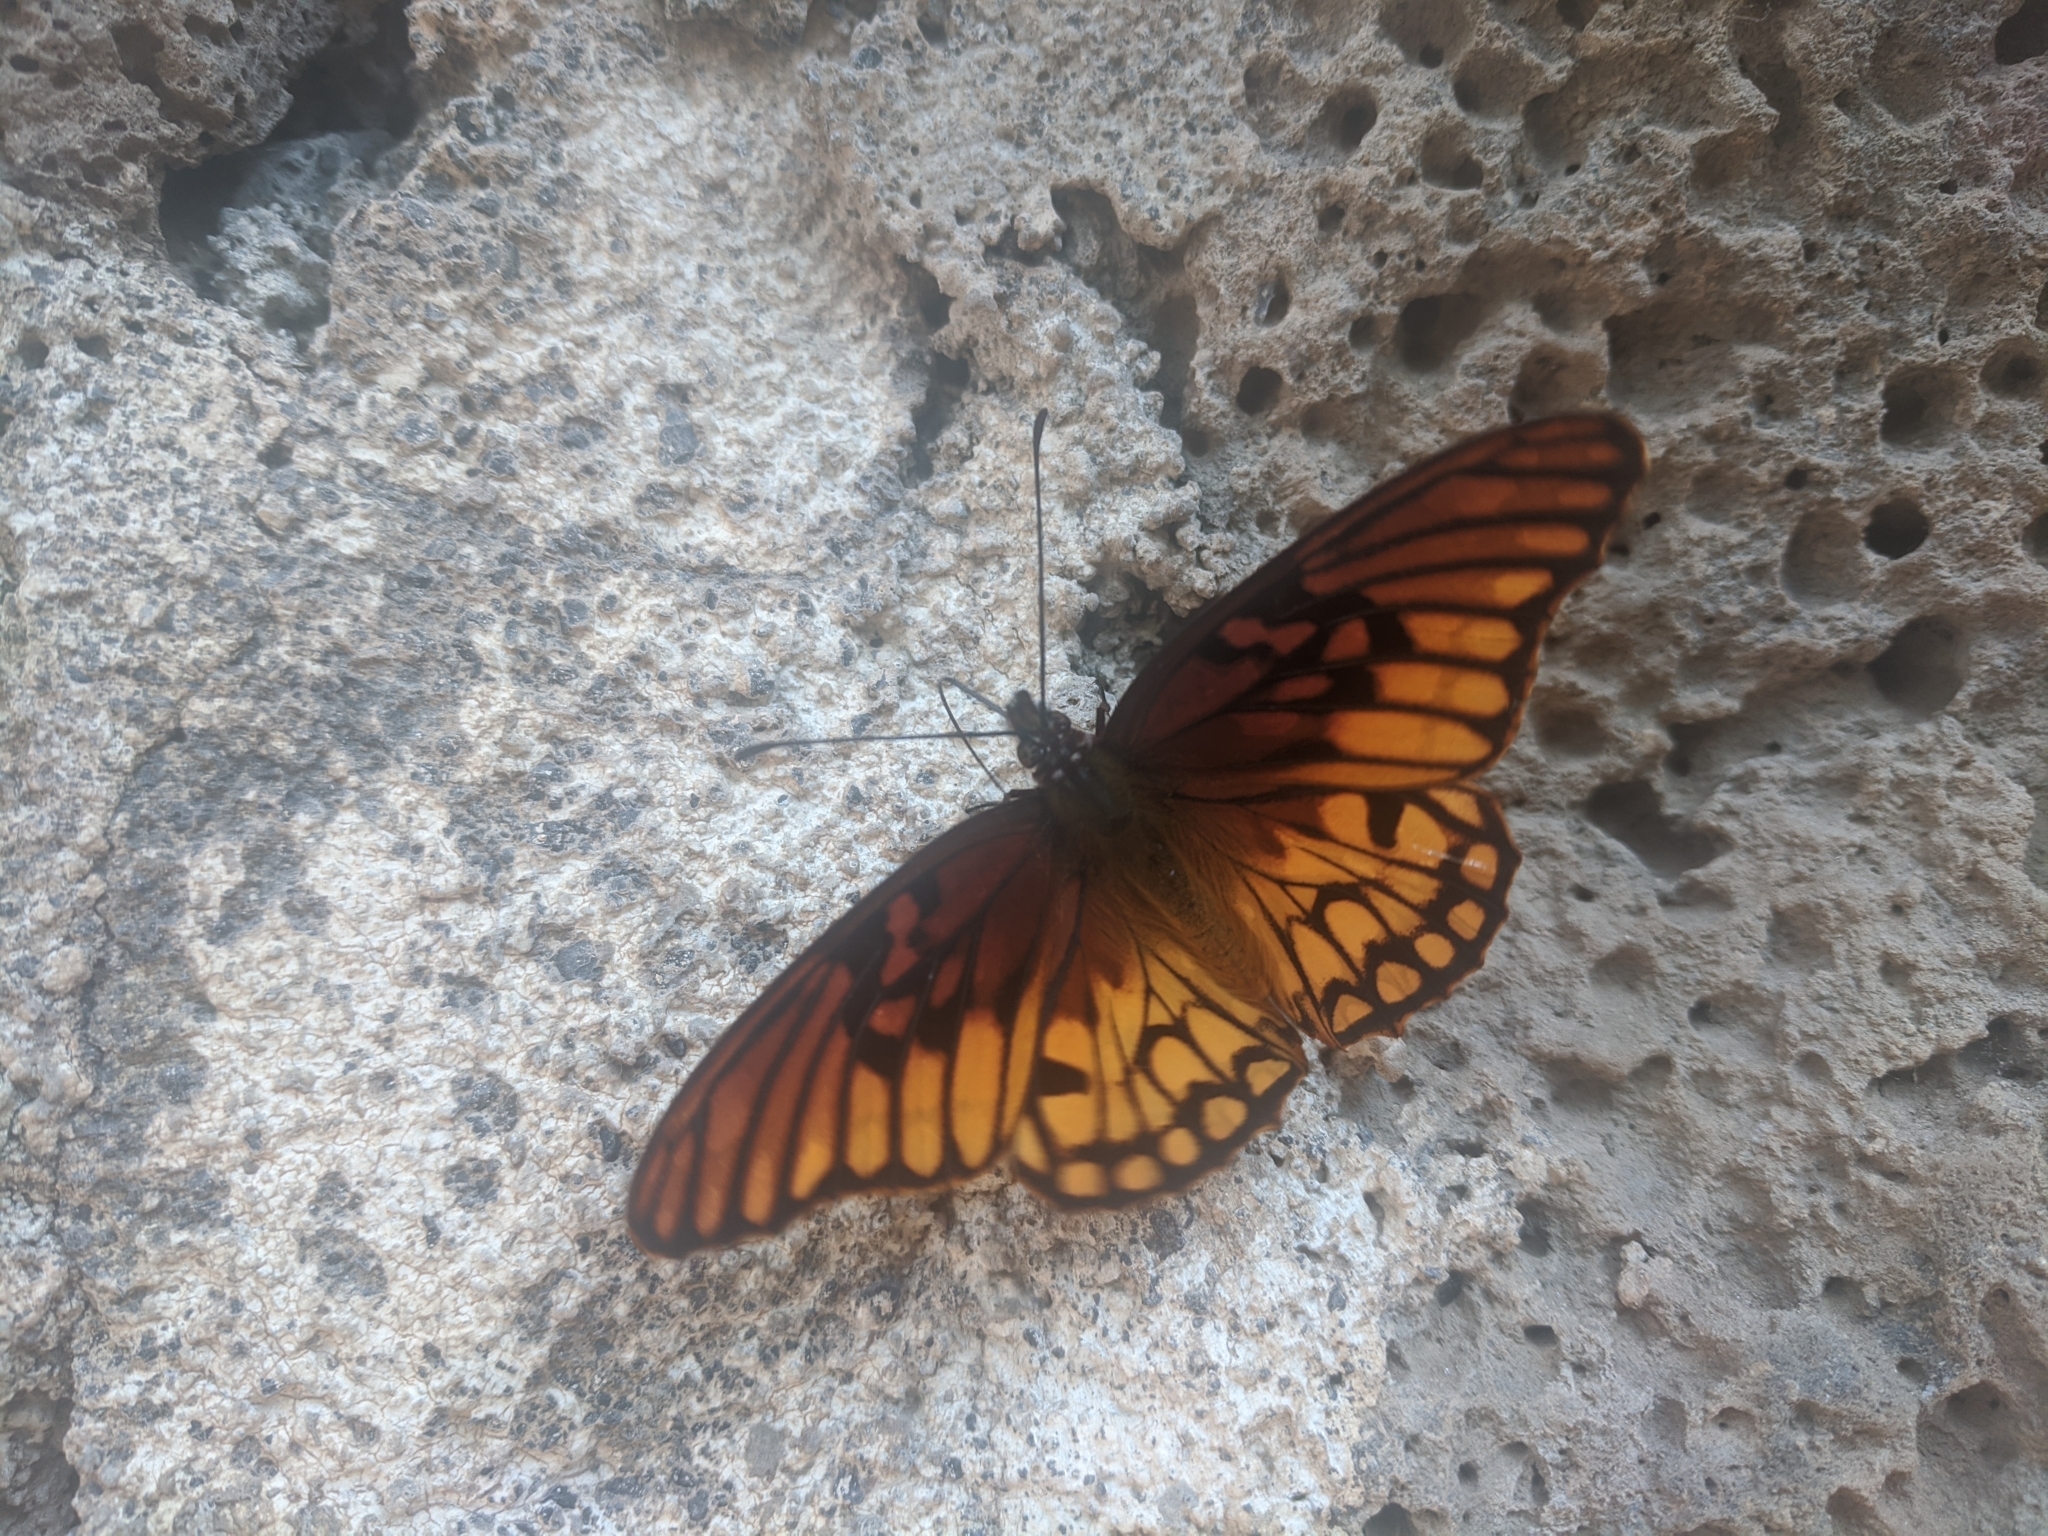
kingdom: Animalia
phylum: Arthropoda
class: Insecta
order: Lepidoptera
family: Nymphalidae
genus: Dione
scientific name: Dione moneta
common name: Mexican silverspot
